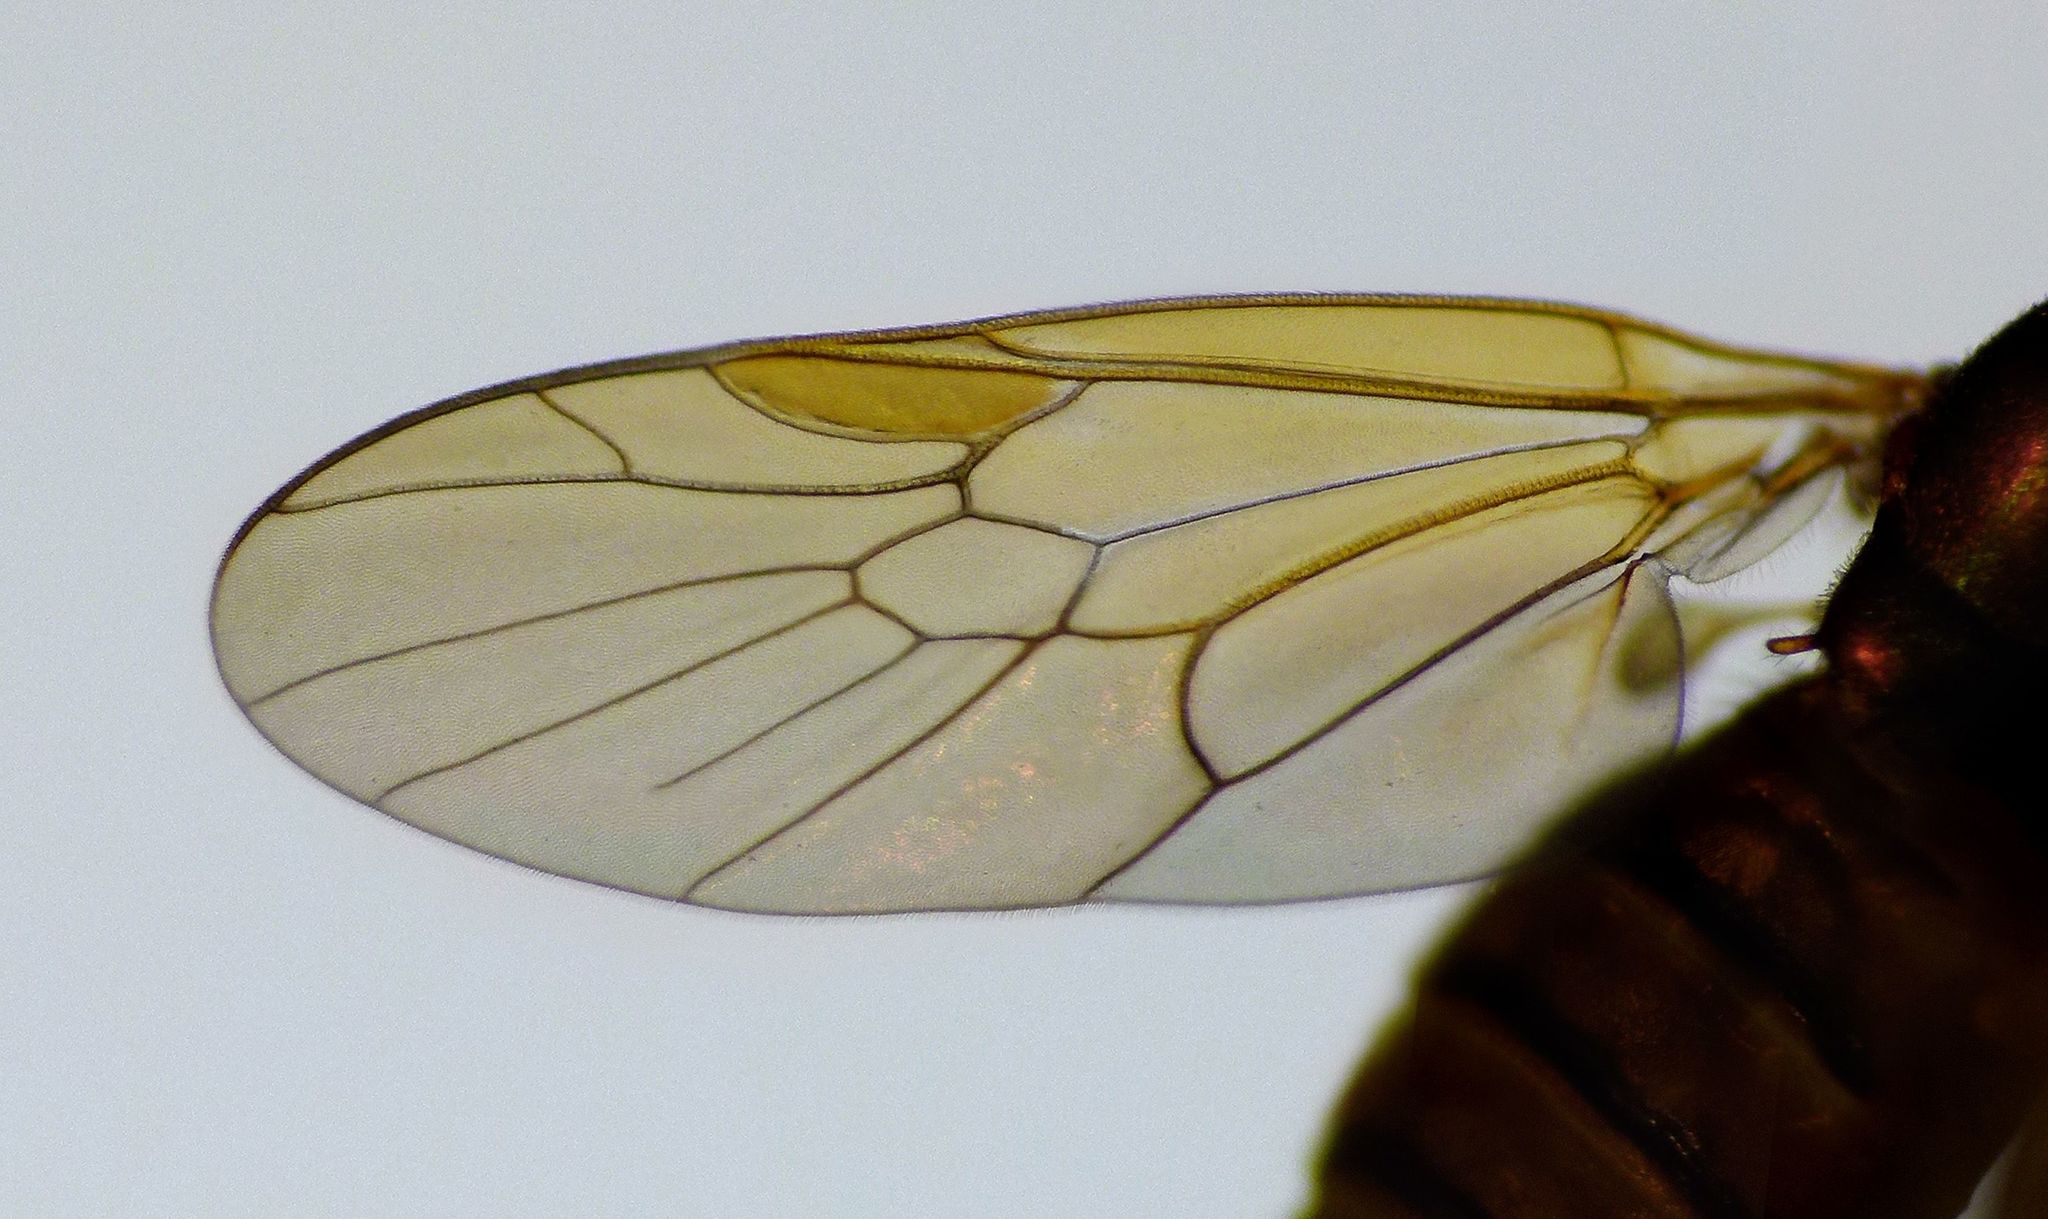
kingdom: Animalia
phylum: Arthropoda
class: Insecta
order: Diptera
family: Stratiomyidae
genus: Neactina
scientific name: Neactina opposita
